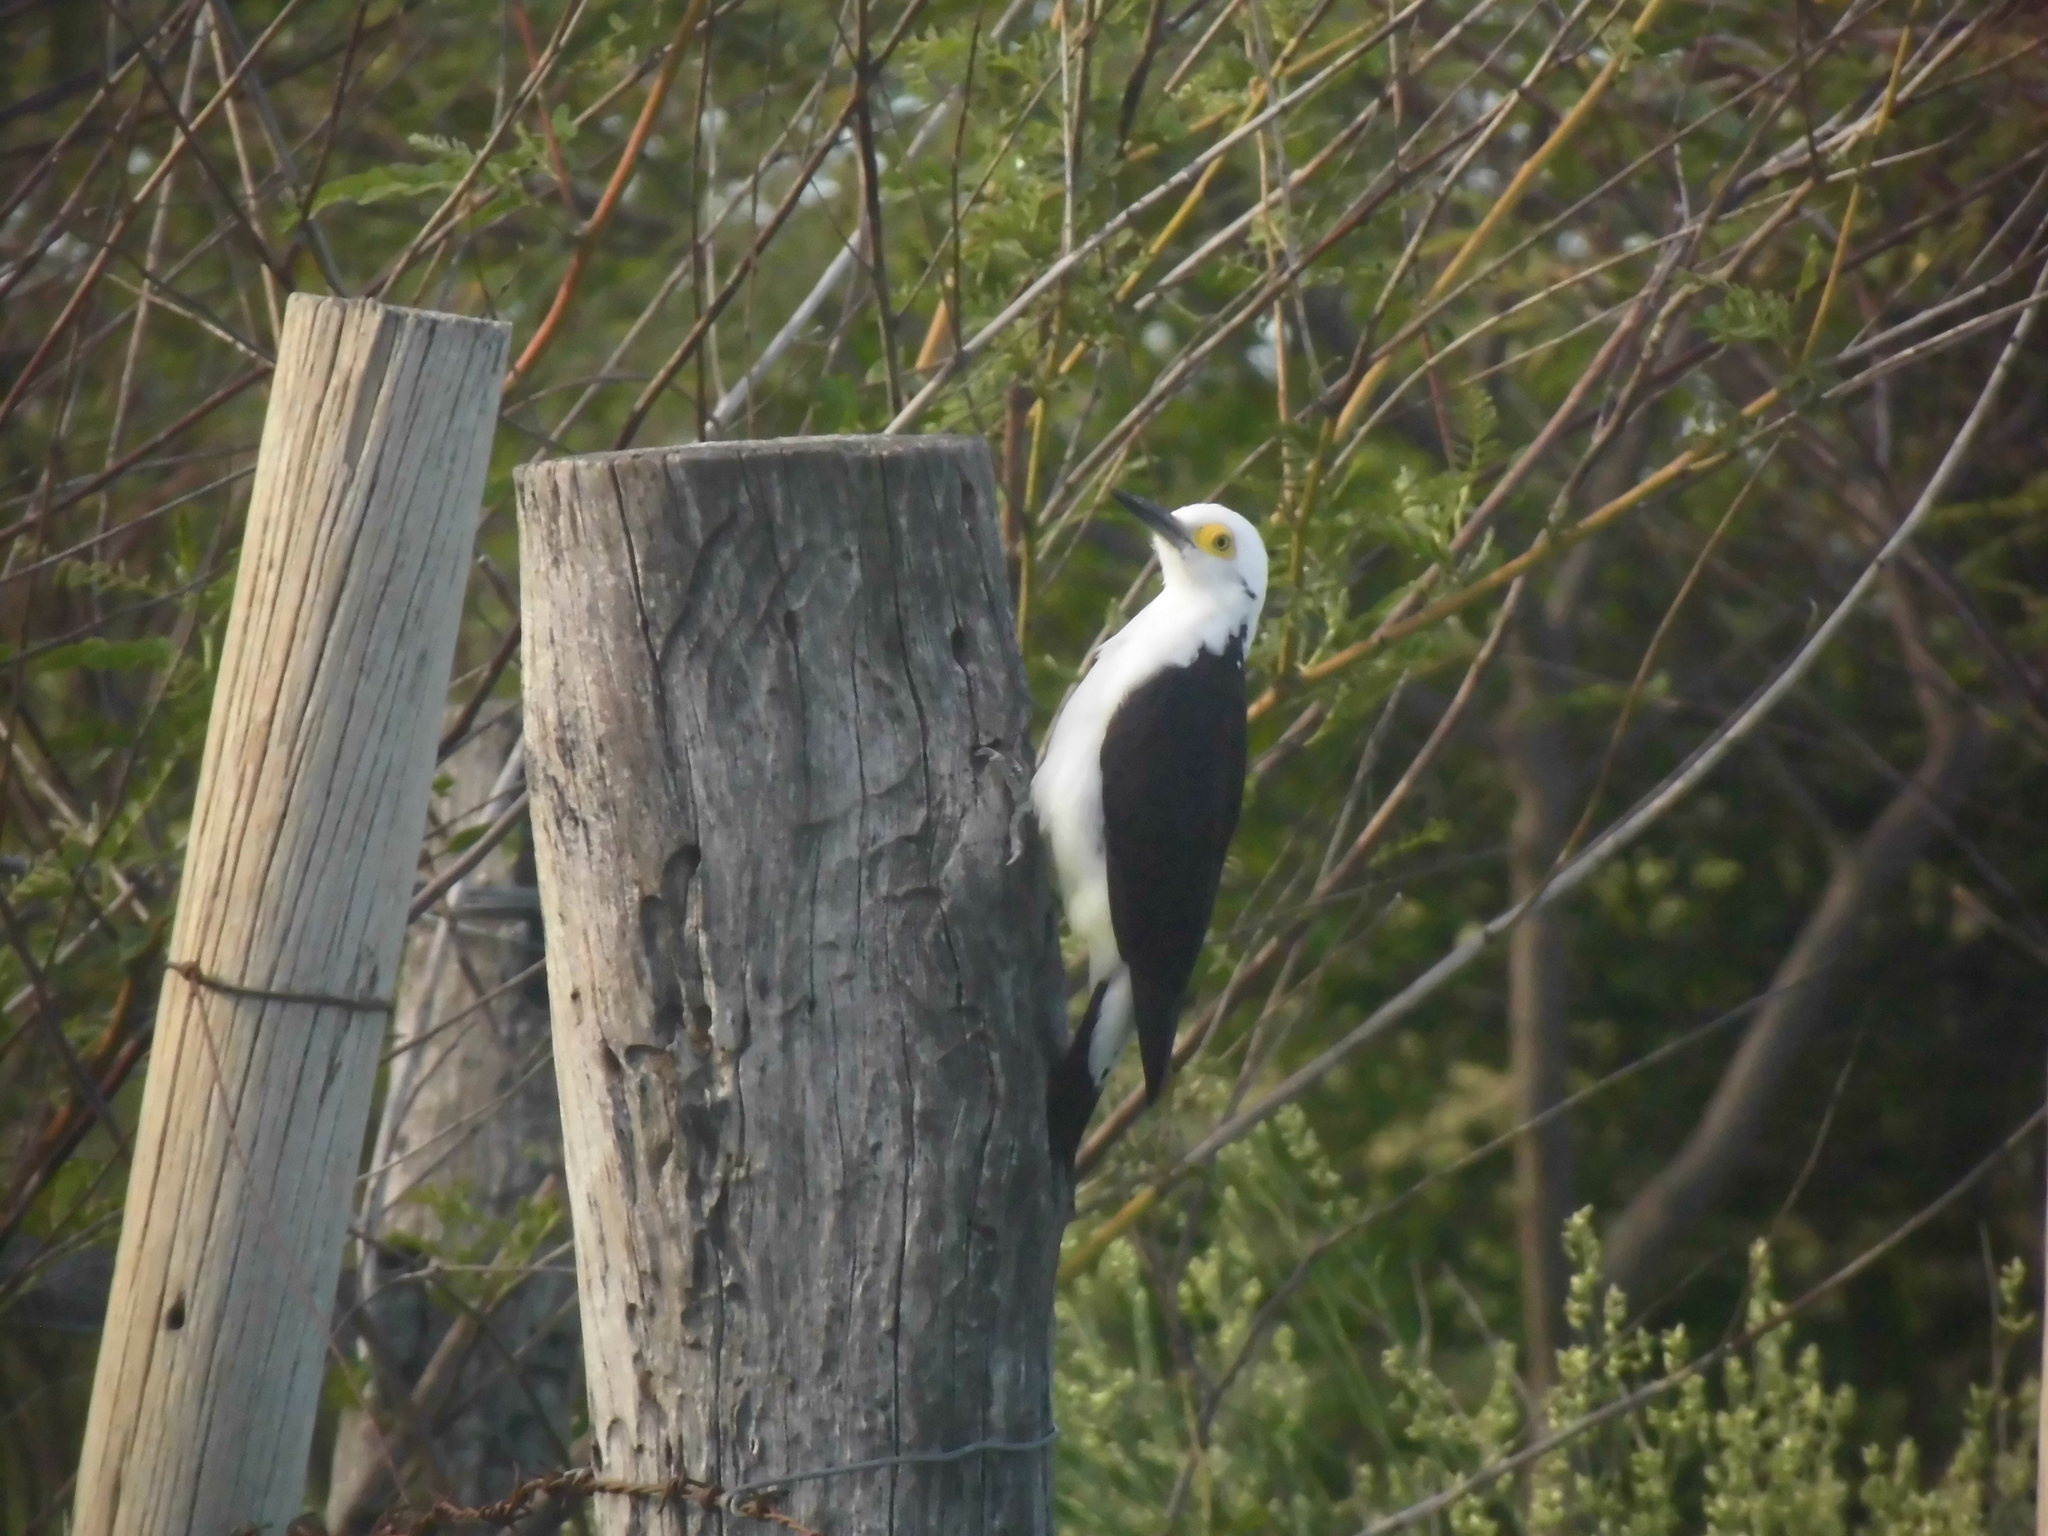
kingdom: Animalia
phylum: Chordata
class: Aves
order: Piciformes
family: Picidae
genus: Melanerpes
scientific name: Melanerpes candidus
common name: White woodpecker
